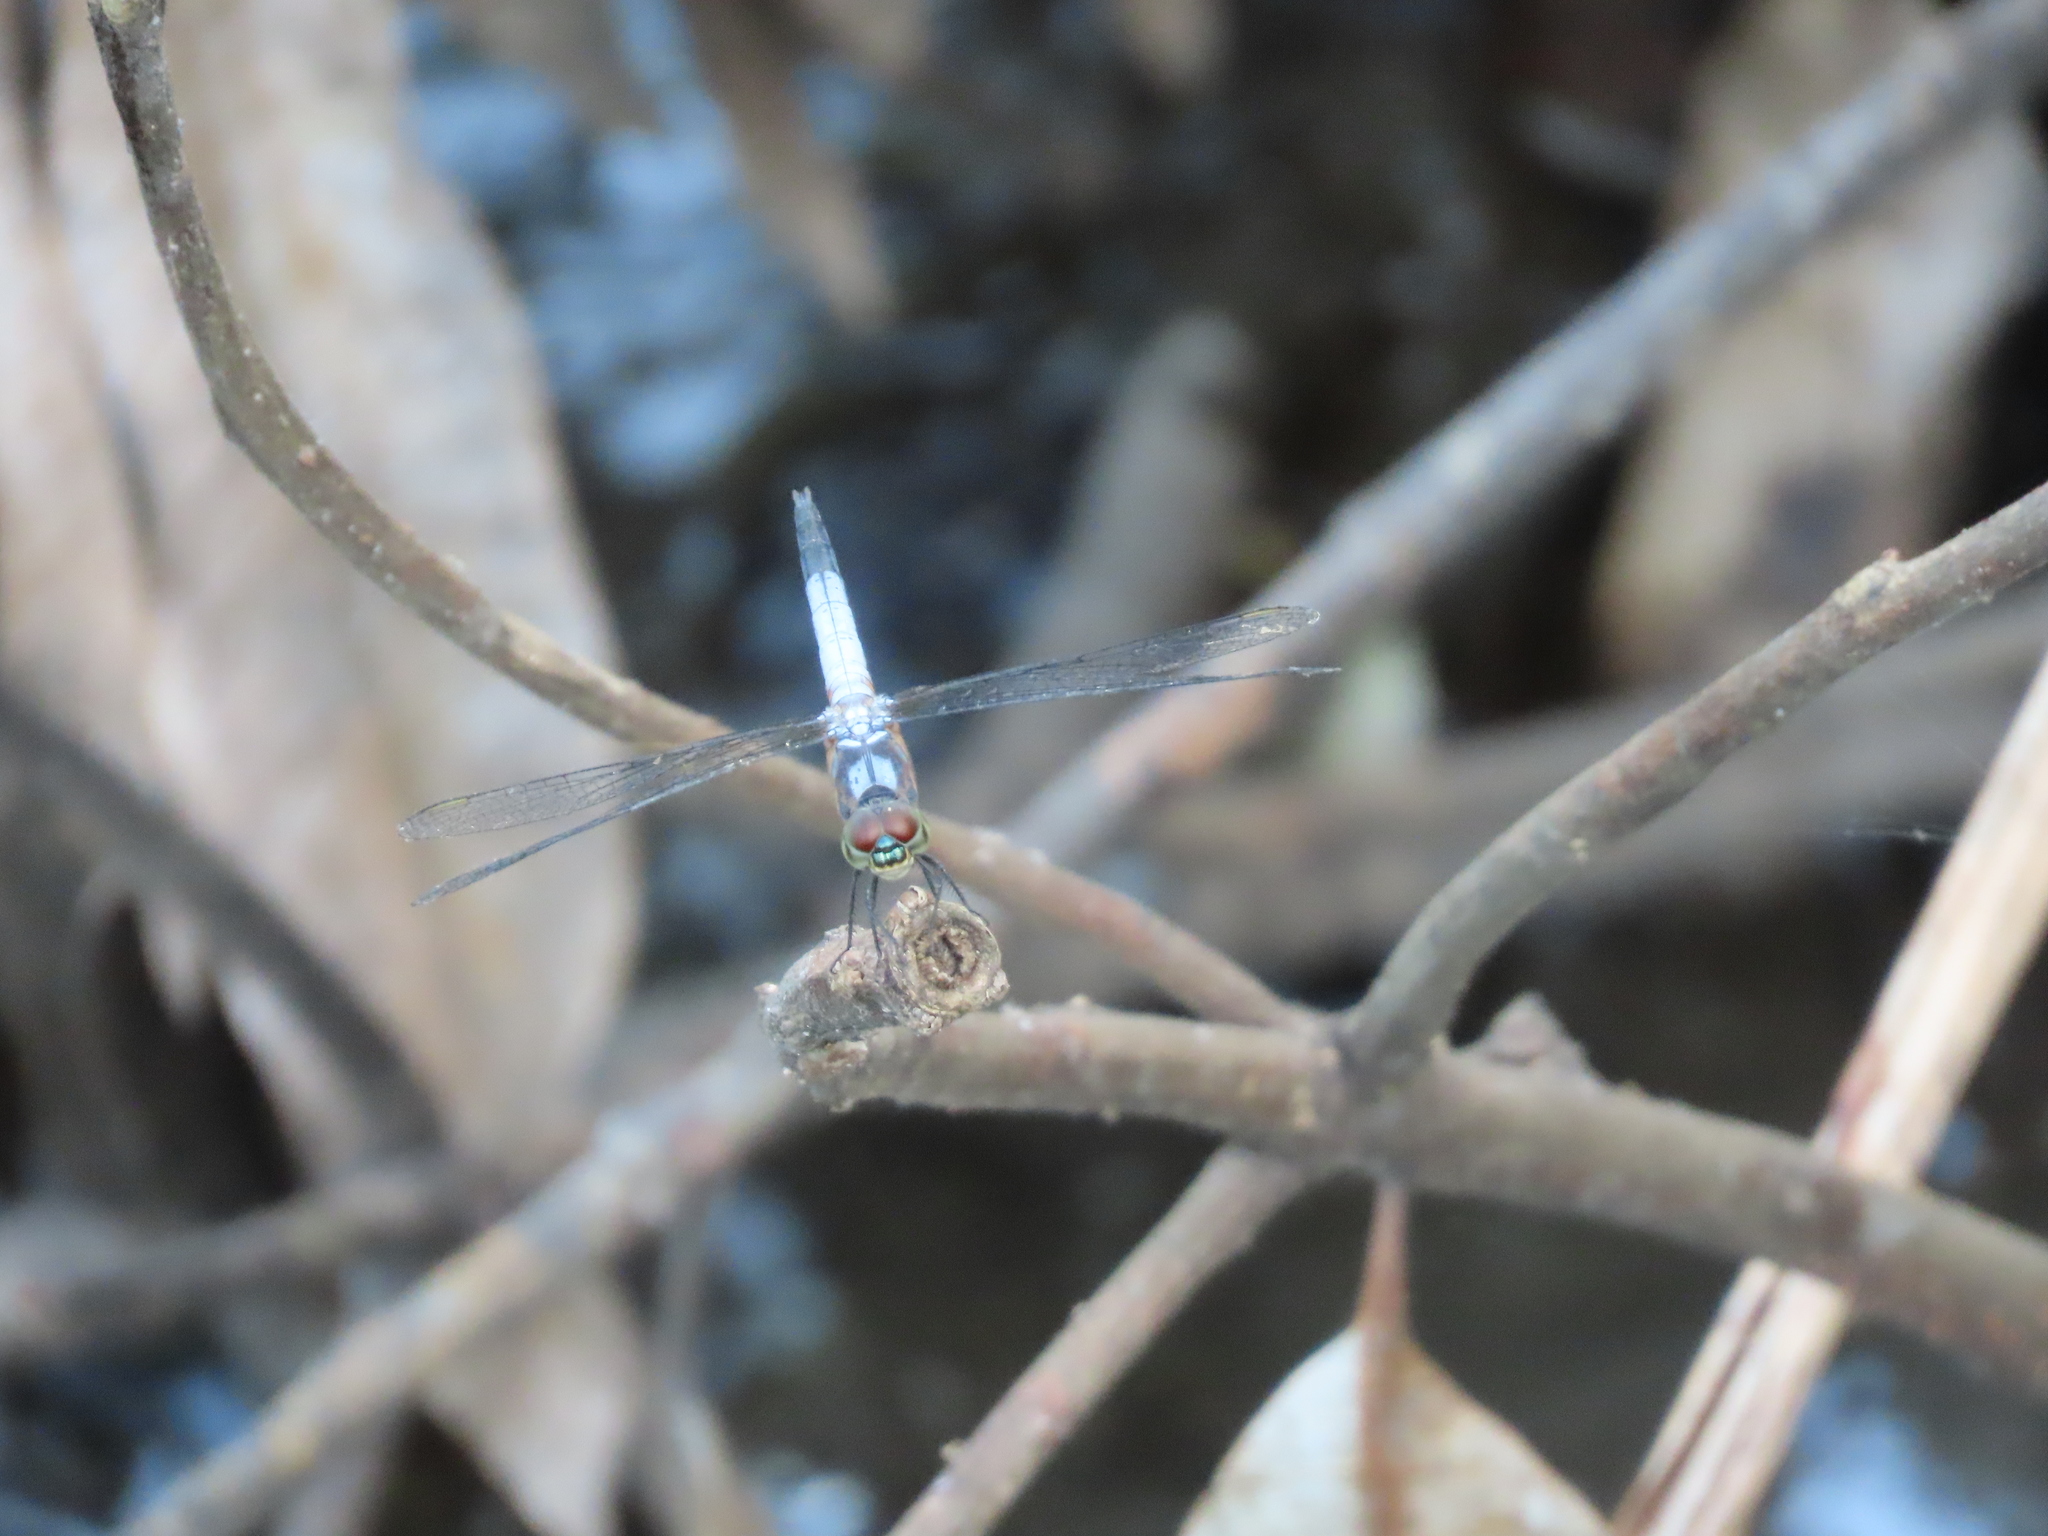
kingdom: Animalia
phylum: Arthropoda
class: Insecta
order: Odonata
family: Libellulidae
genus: Brachydiplax
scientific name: Brachydiplax chalybea
